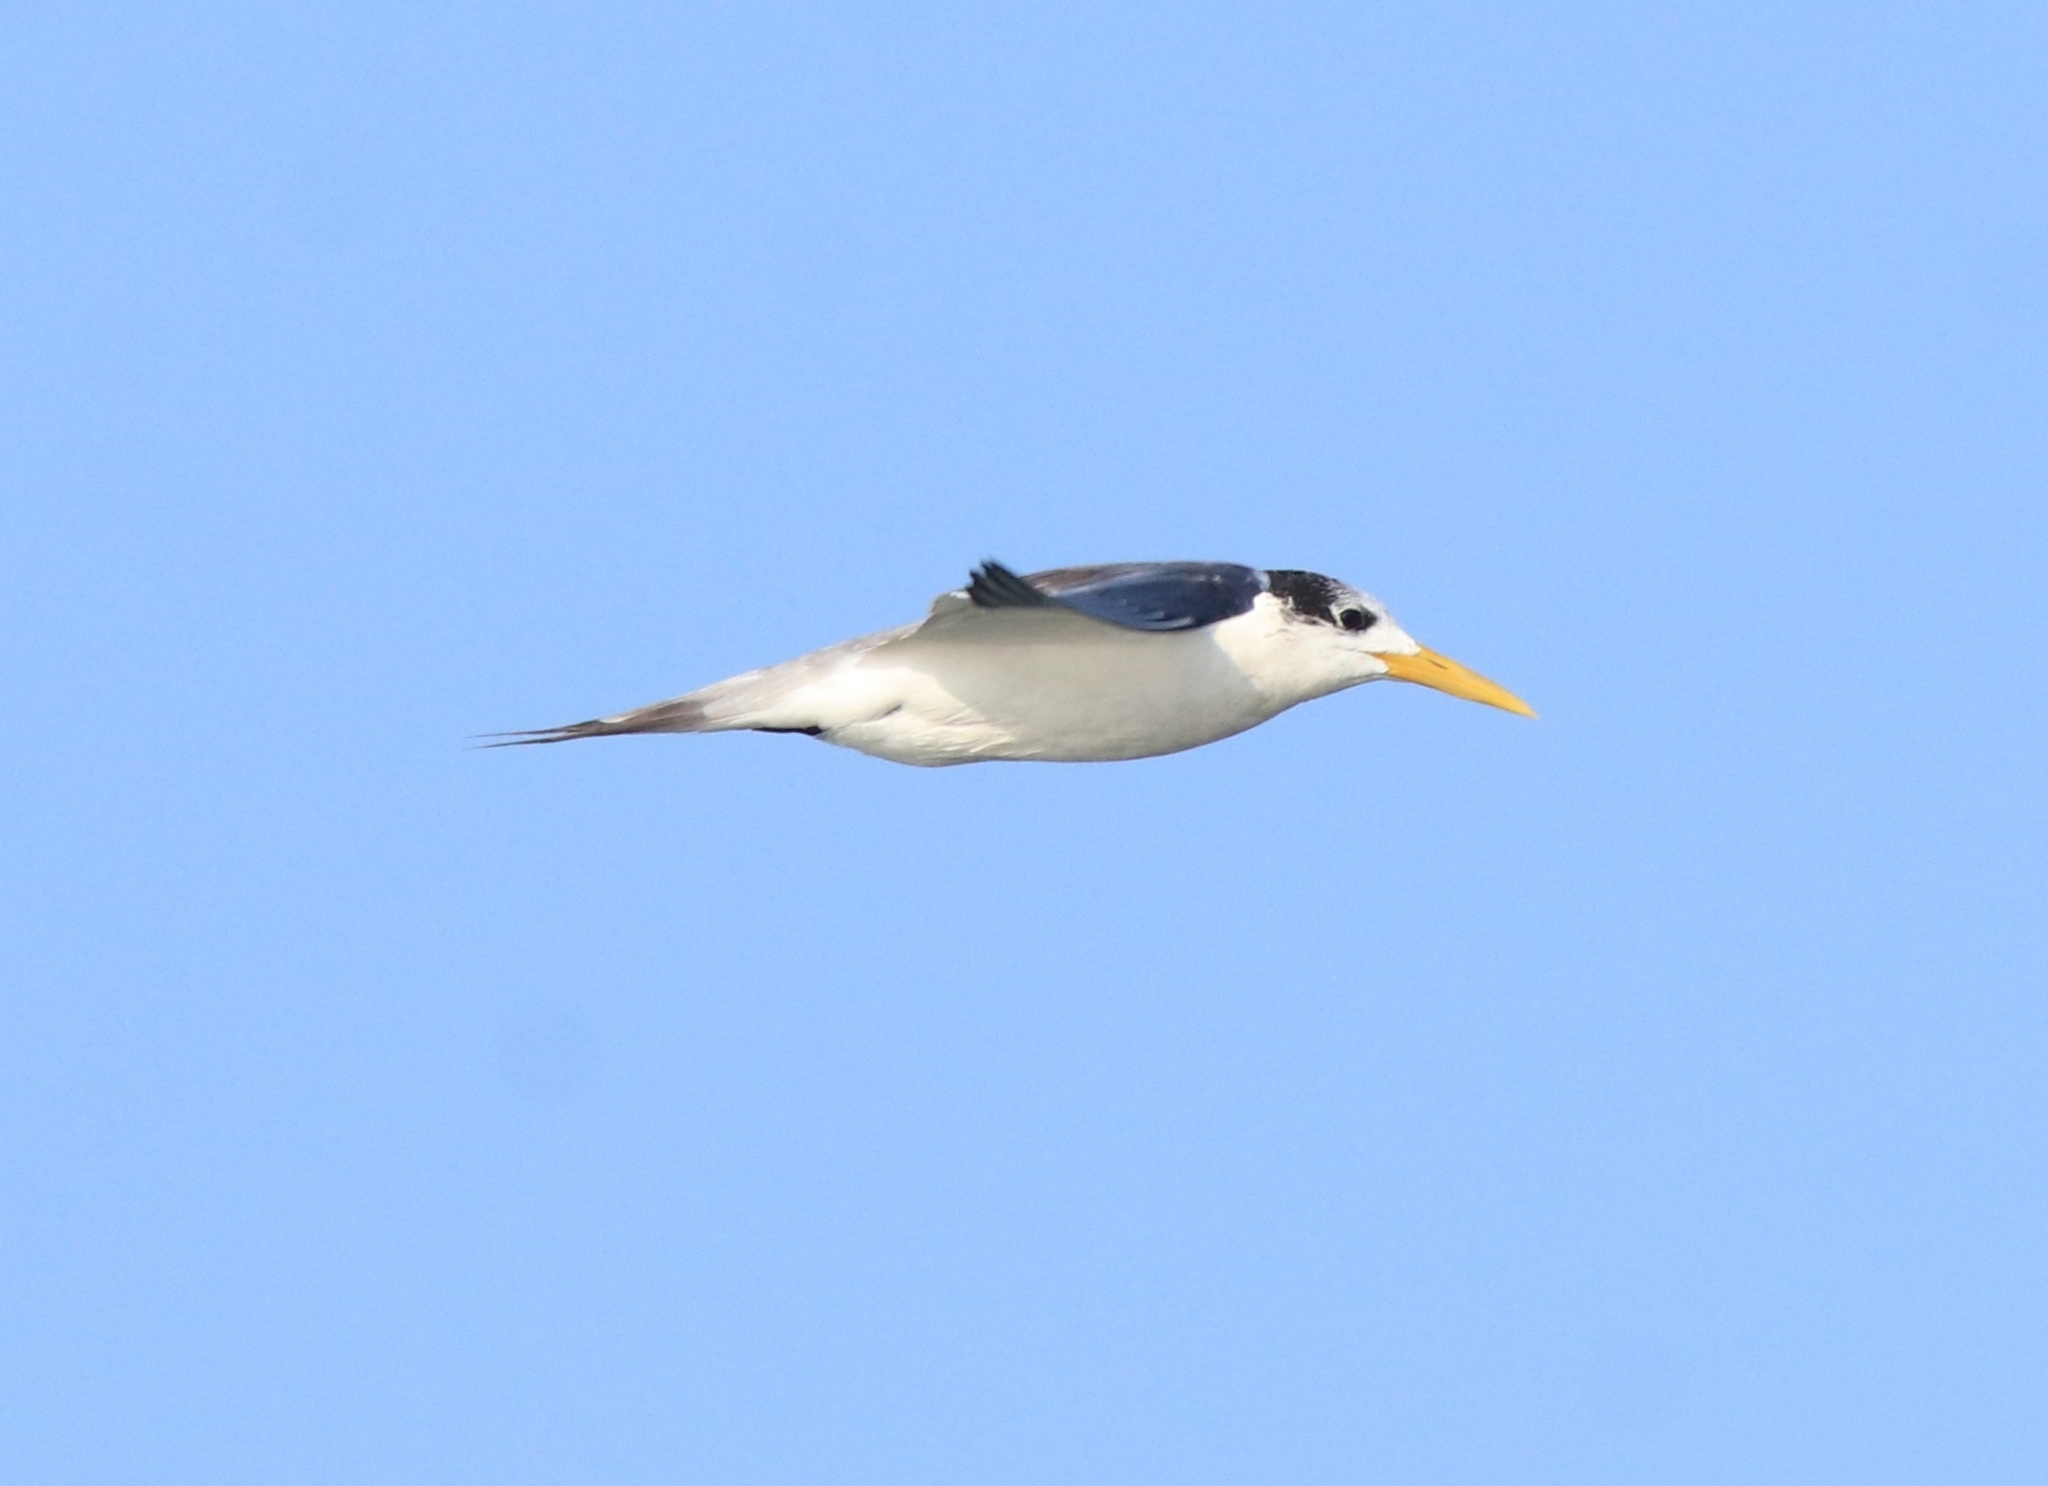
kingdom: Animalia
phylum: Chordata
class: Aves
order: Charadriiformes
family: Laridae
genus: Thalasseus
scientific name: Thalasseus bergii
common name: Greater crested tern
